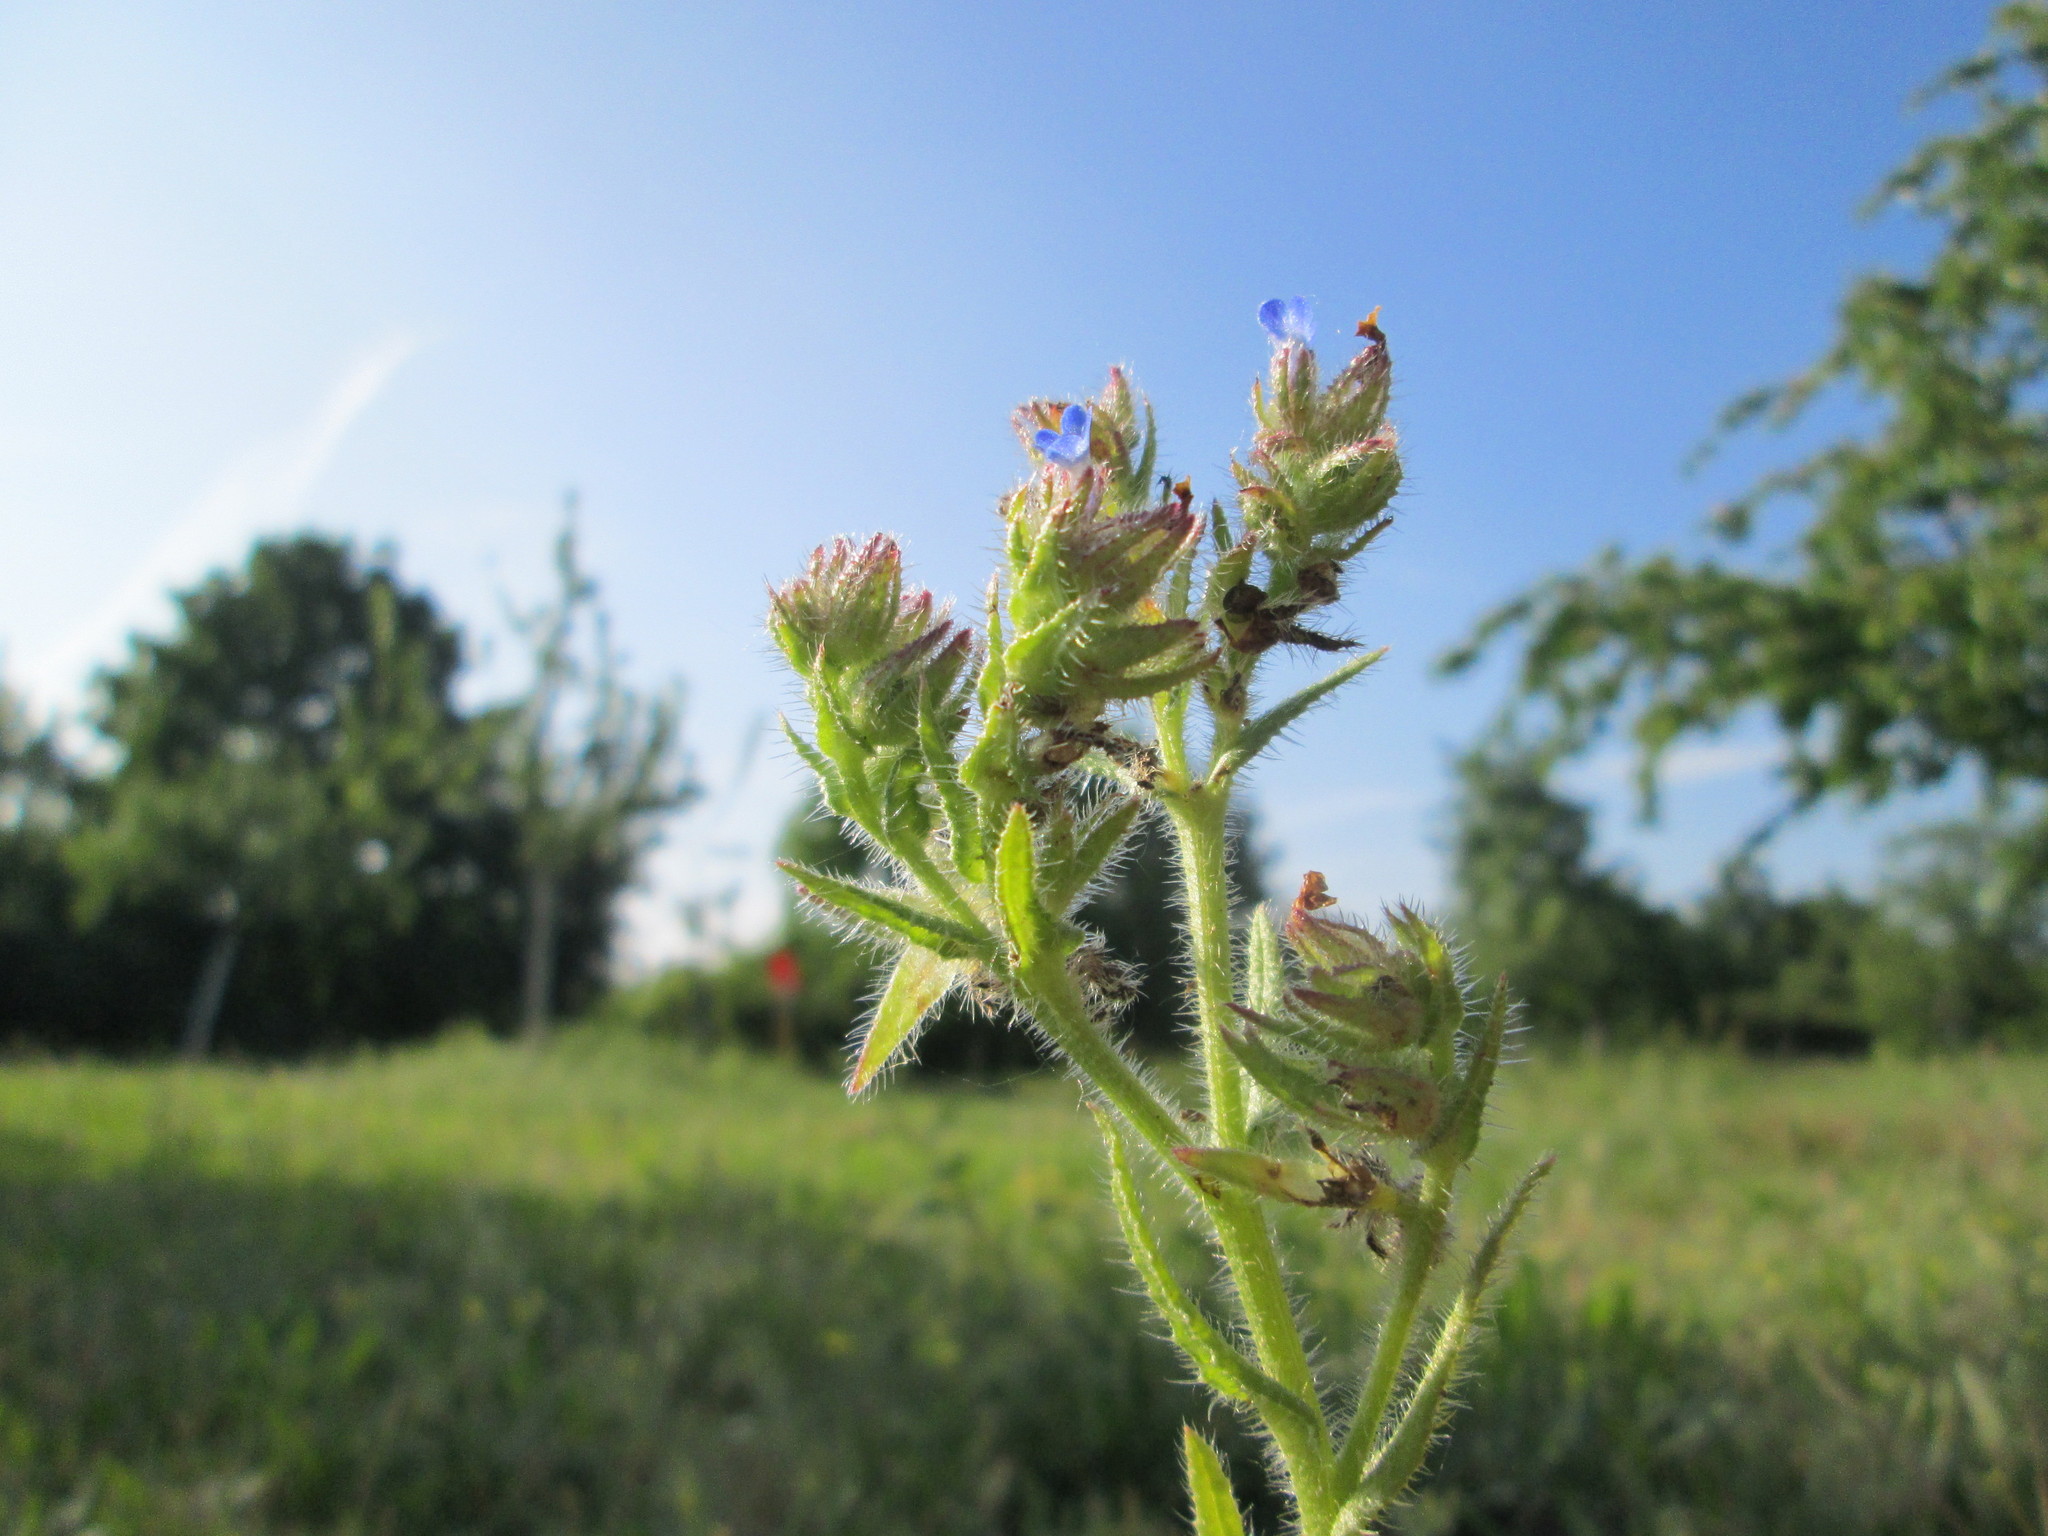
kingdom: Plantae
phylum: Tracheophyta
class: Magnoliopsida
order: Boraginales
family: Boraginaceae
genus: Lycopsis
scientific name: Lycopsis arvensis
